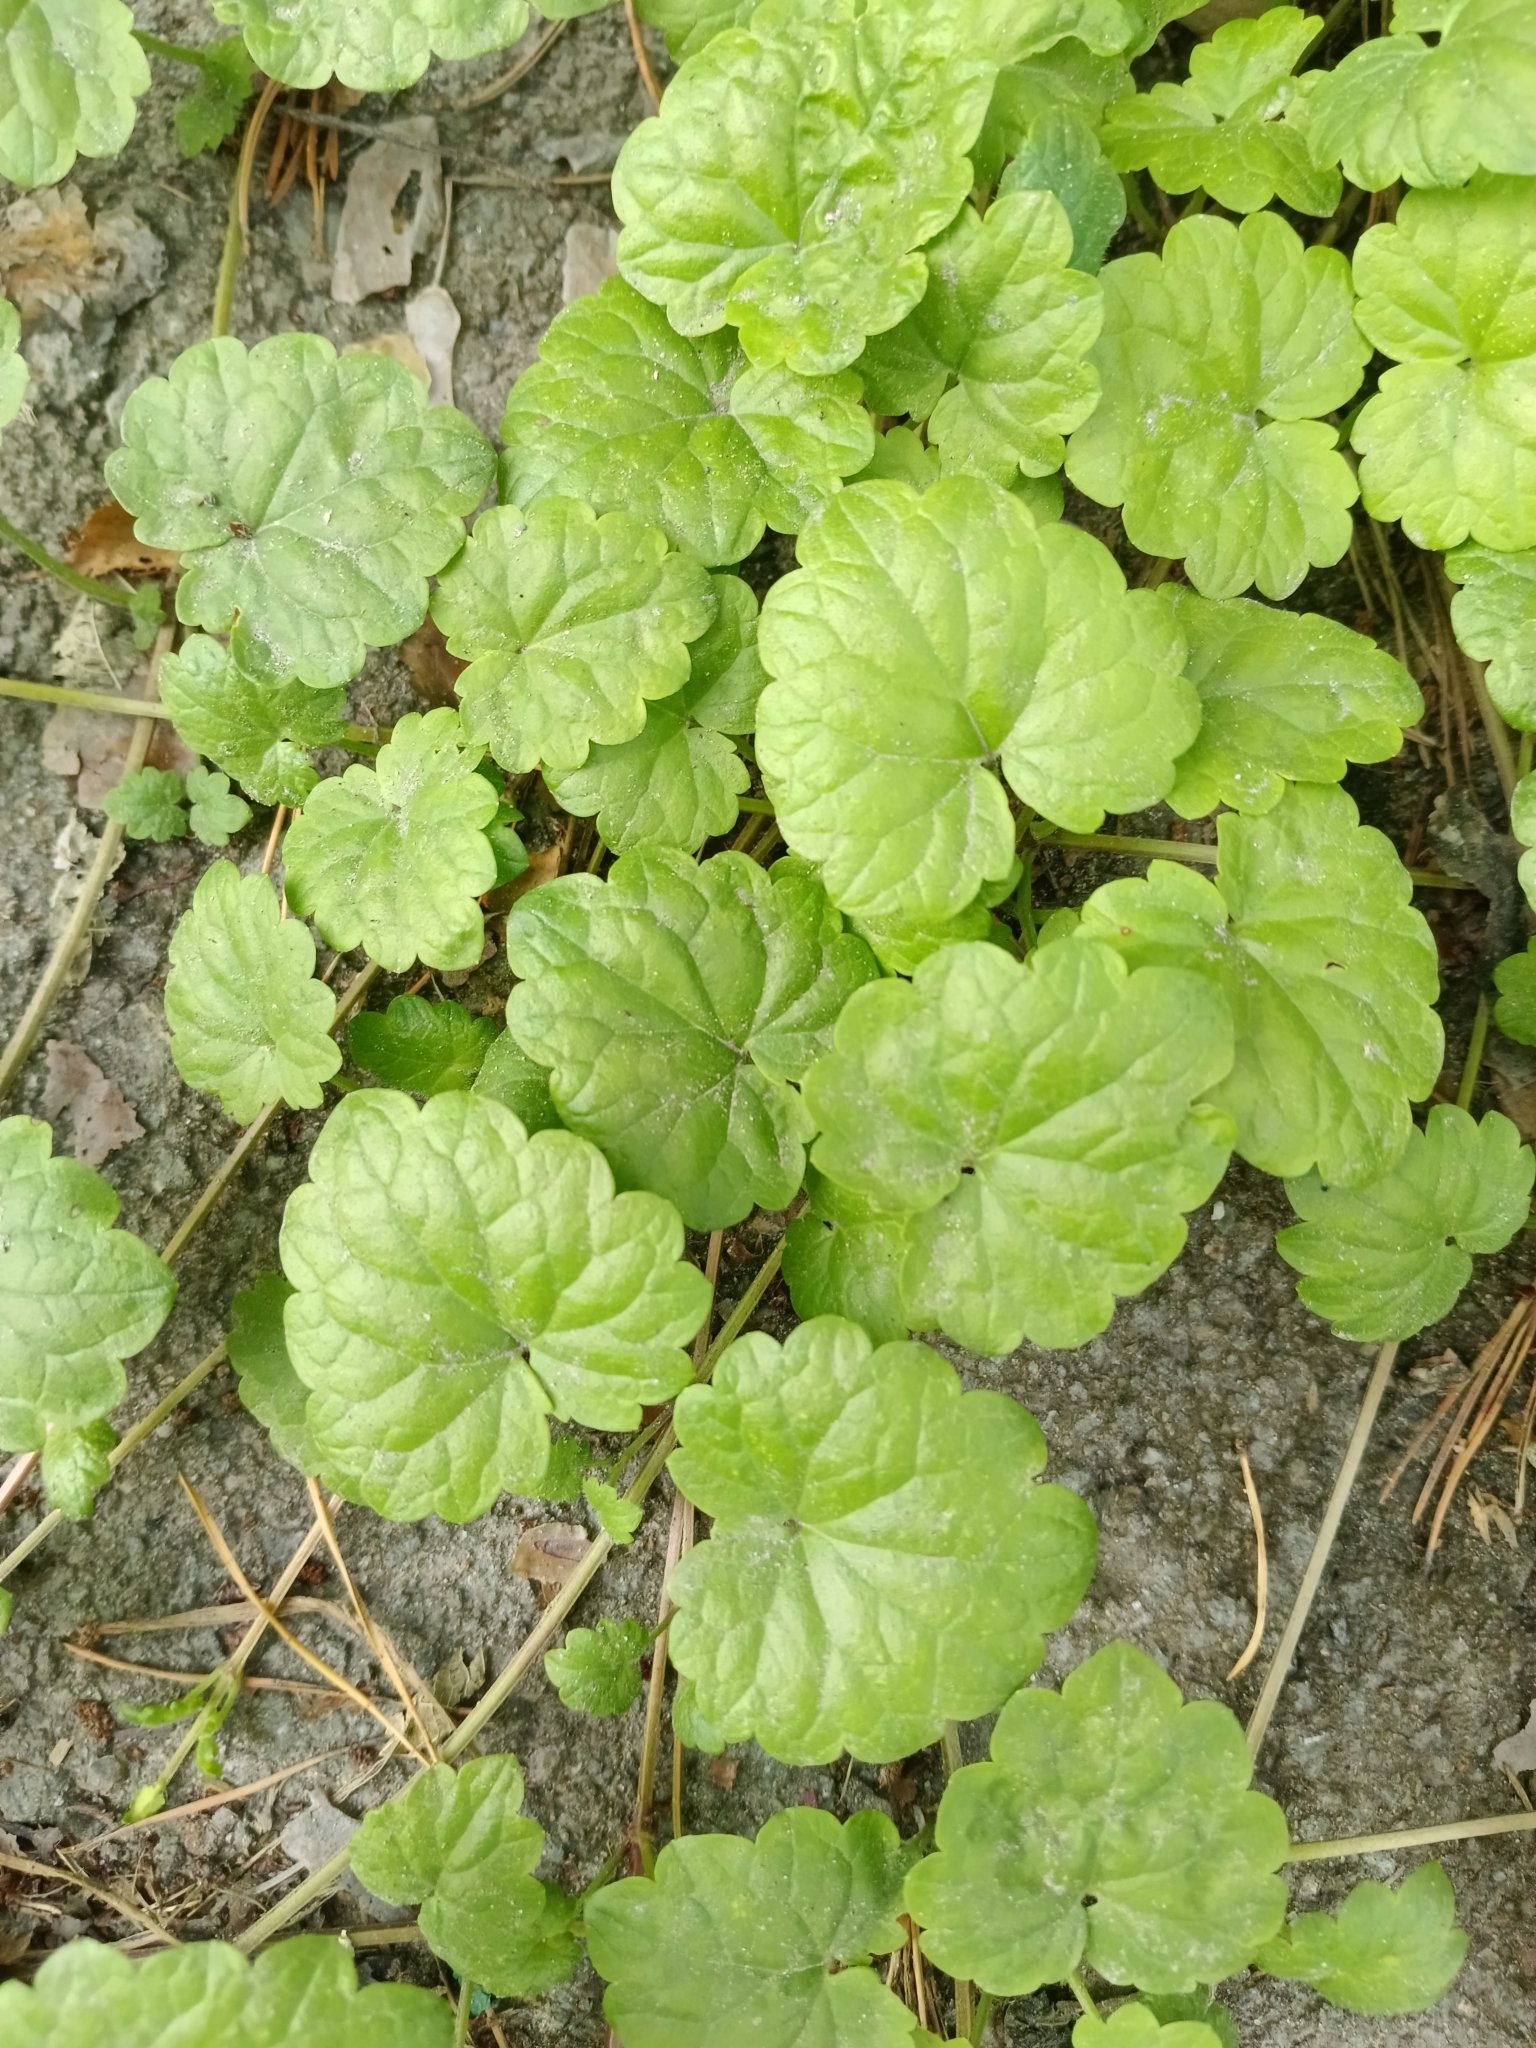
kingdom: Plantae
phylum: Tracheophyta
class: Magnoliopsida
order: Lamiales
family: Lamiaceae
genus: Glechoma
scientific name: Glechoma hederacea
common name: Ground ivy
